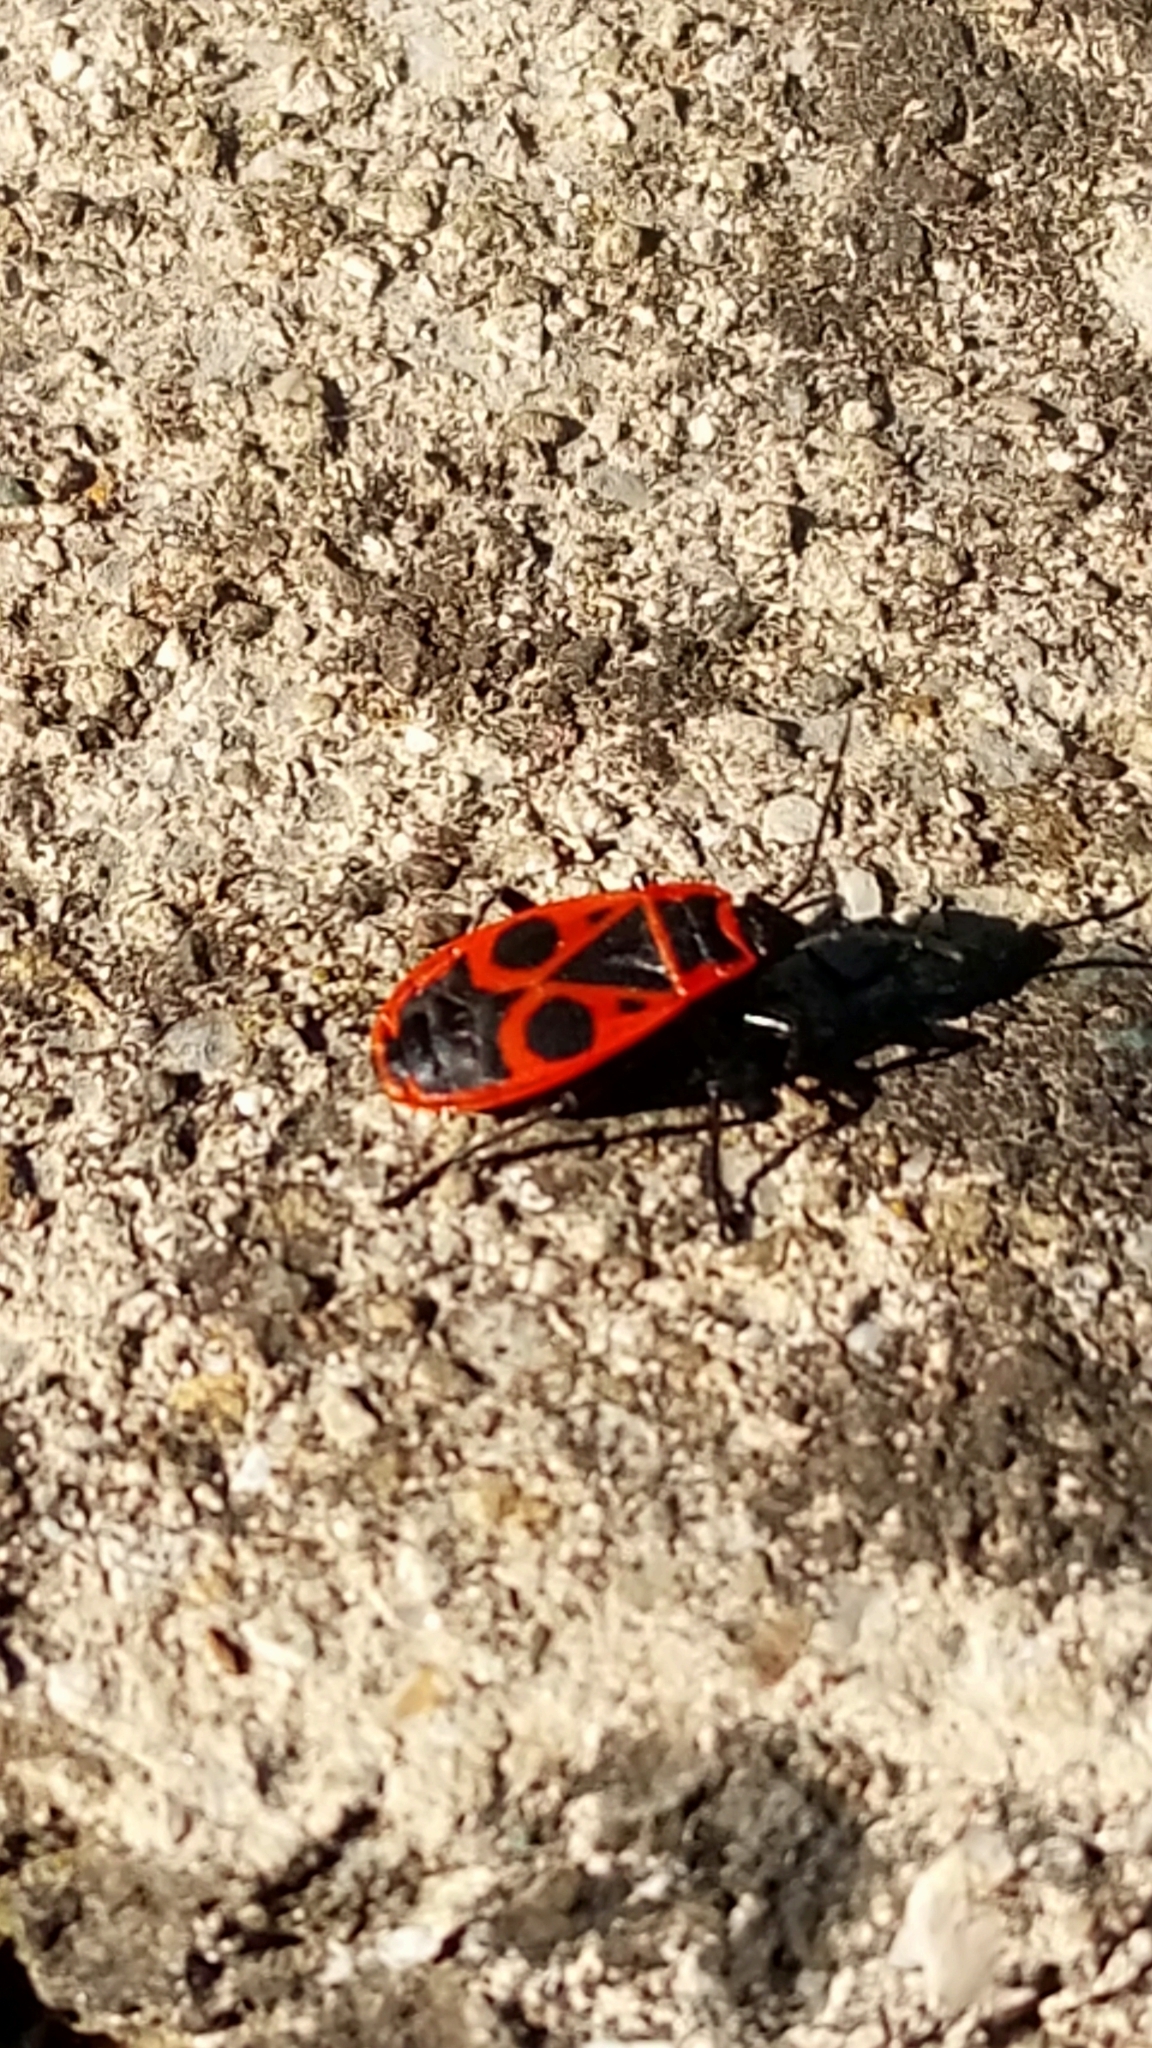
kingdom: Animalia
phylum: Arthropoda
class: Insecta
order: Hemiptera
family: Pyrrhocoridae
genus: Pyrrhocoris
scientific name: Pyrrhocoris apterus
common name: Firebug
